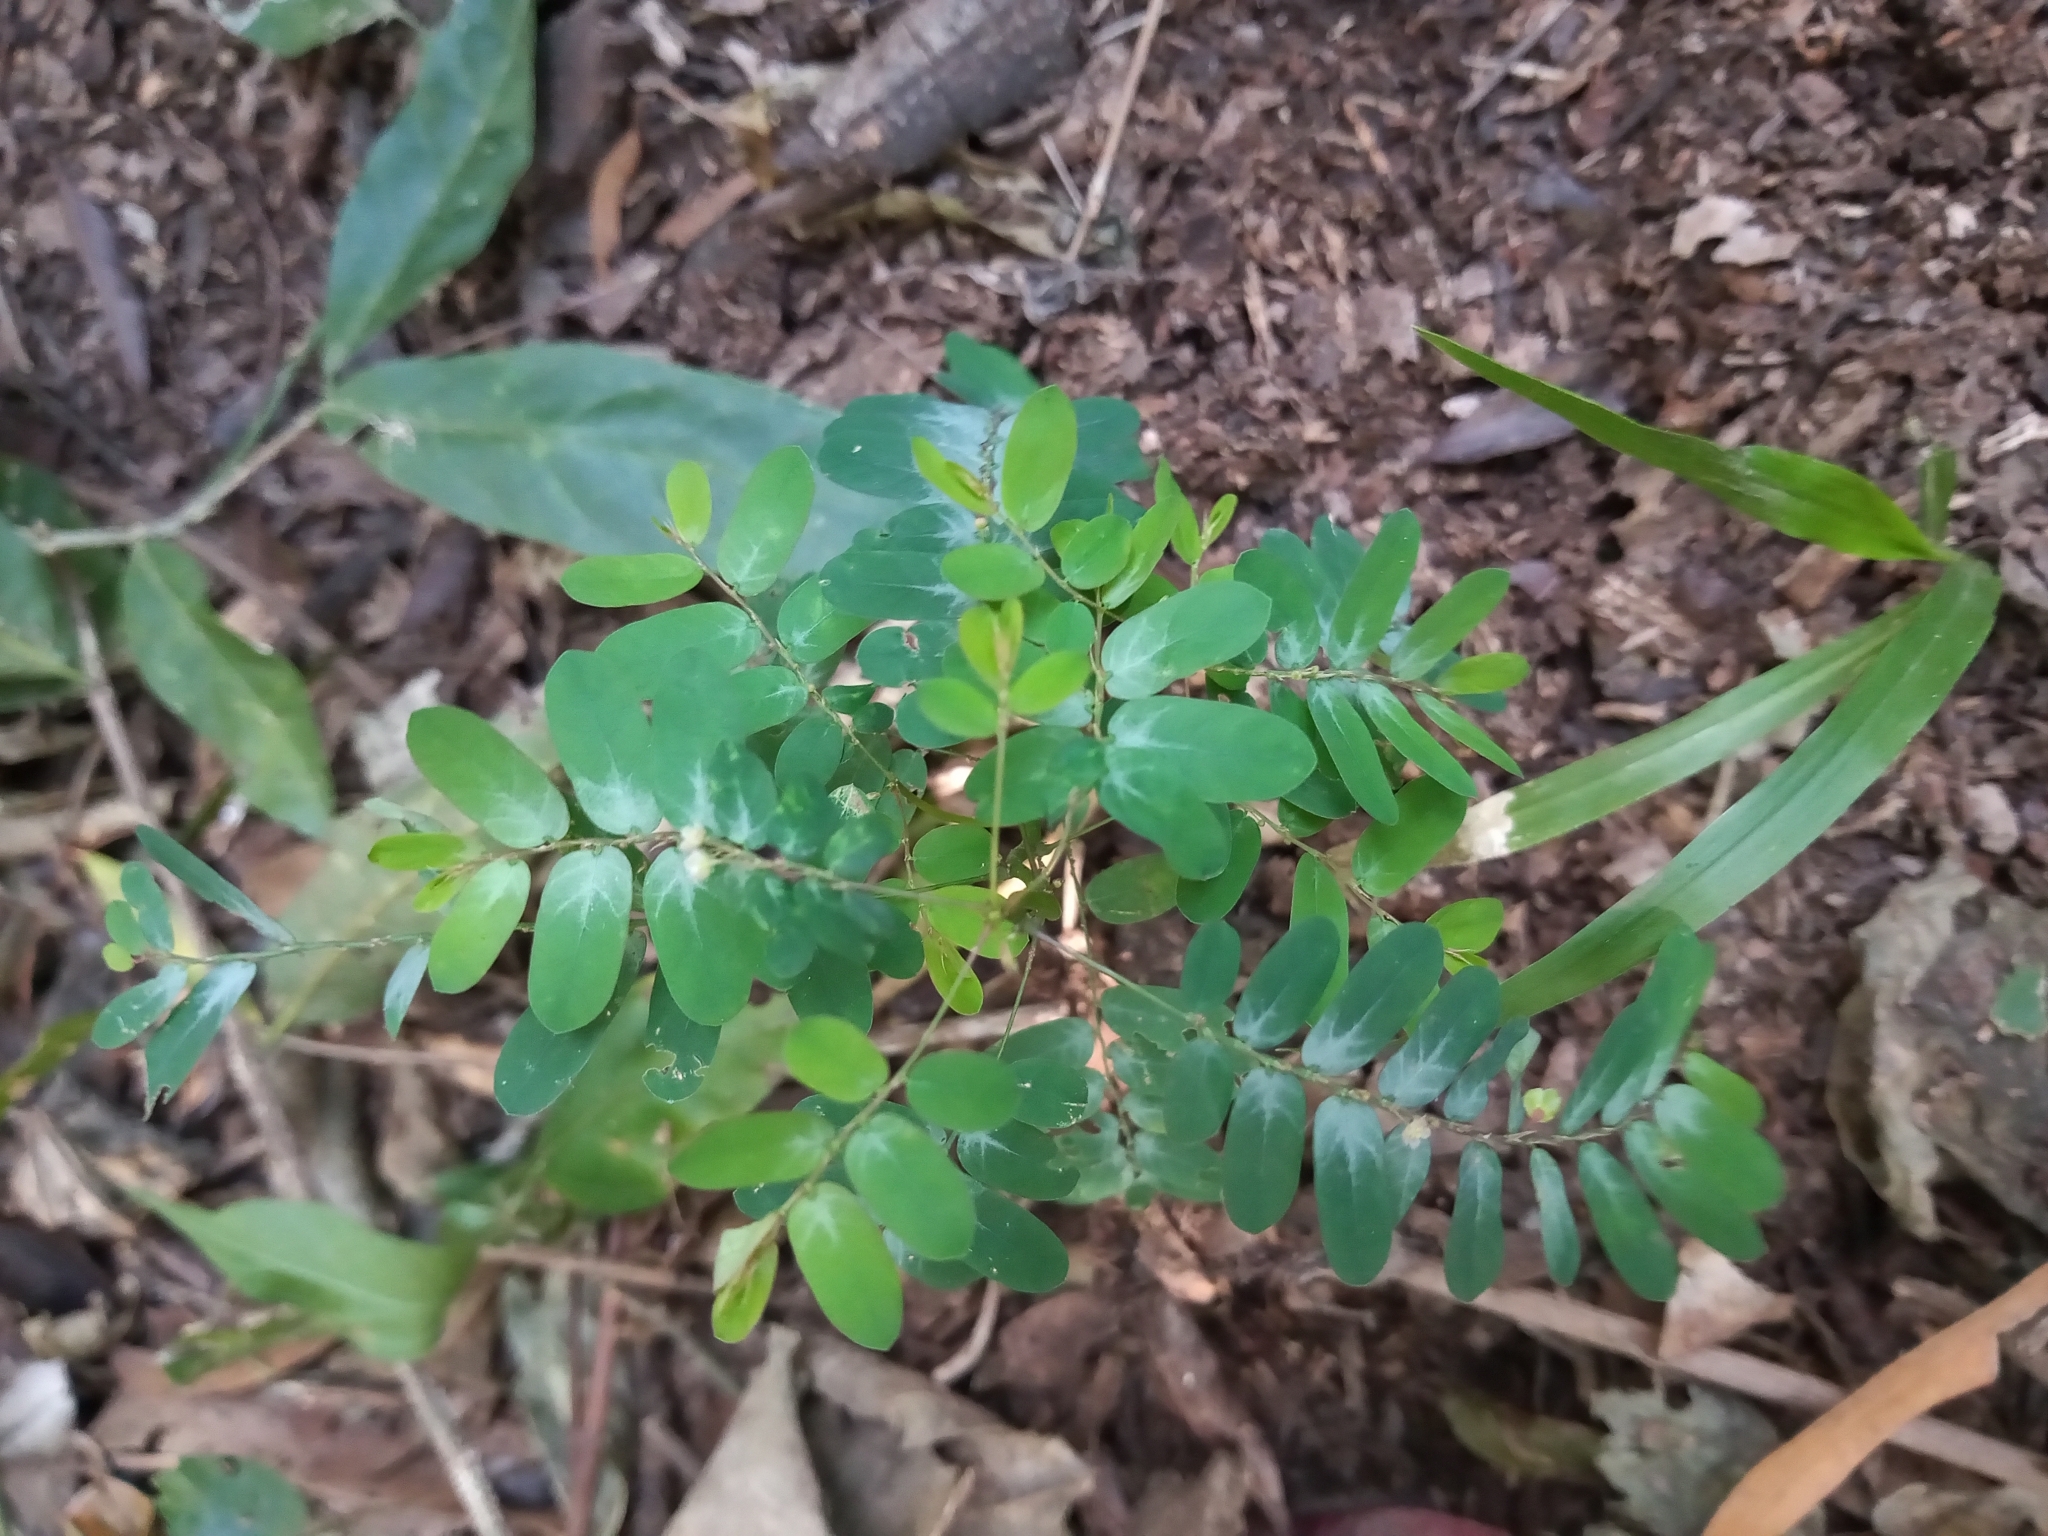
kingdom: Plantae
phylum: Tracheophyta
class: Magnoliopsida
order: Malpighiales
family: Phyllanthaceae
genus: Phyllanthus
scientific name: Phyllanthus niruri
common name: Niruri
